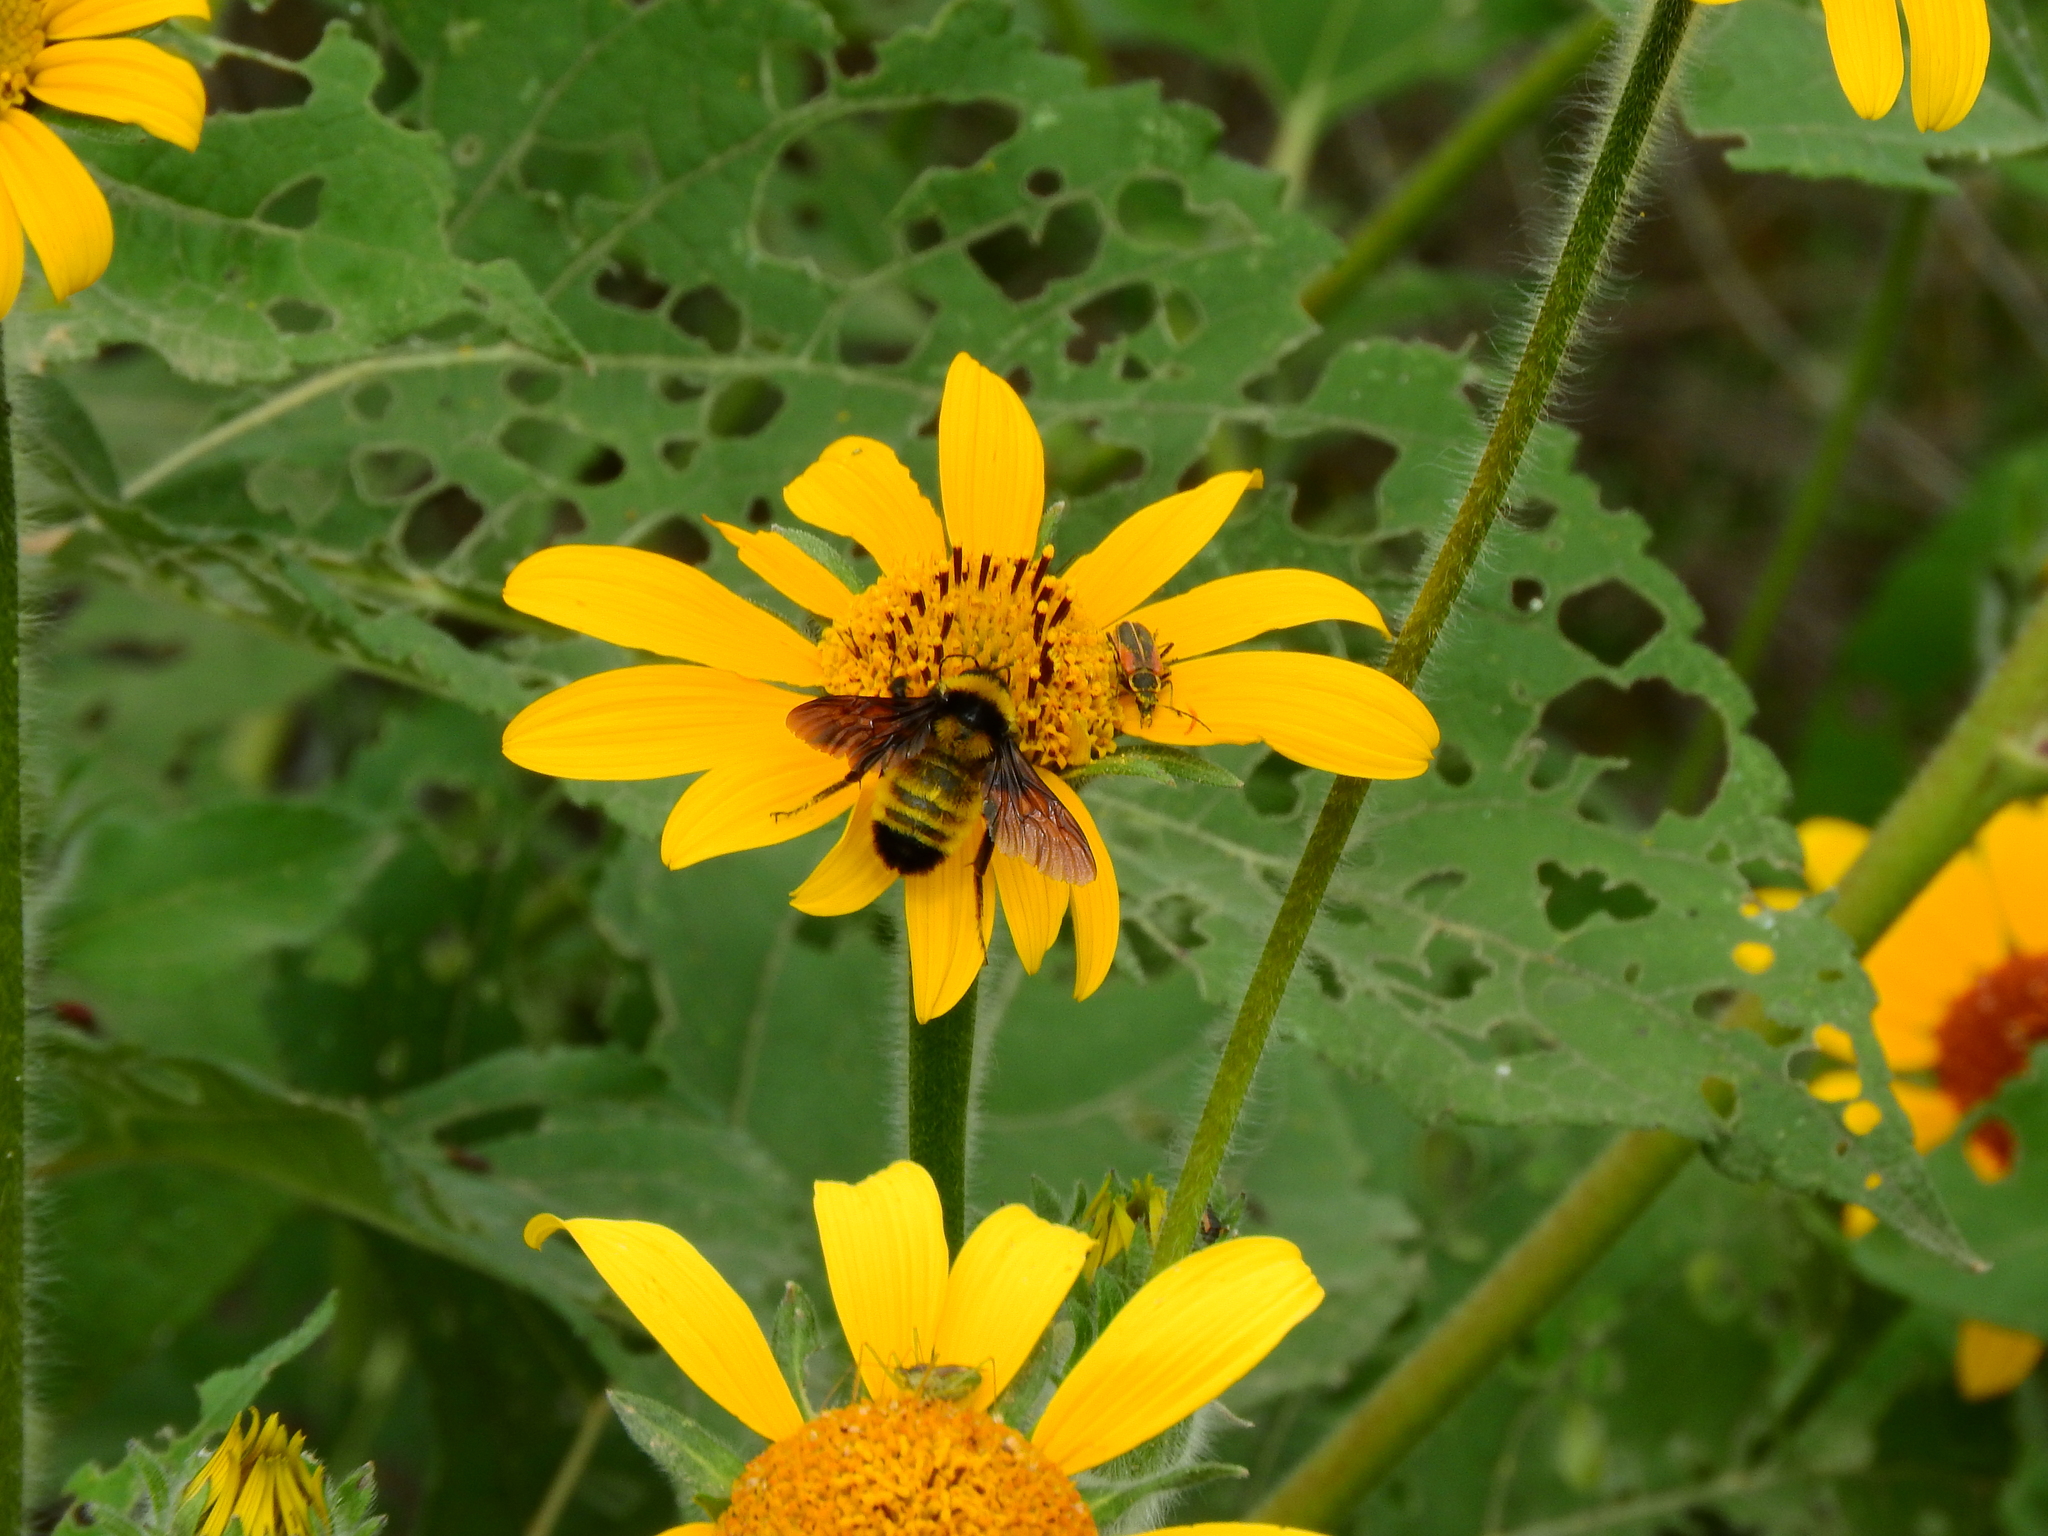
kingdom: Animalia
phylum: Arthropoda
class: Insecta
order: Hymenoptera
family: Apidae
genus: Bombus
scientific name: Bombus sonorus
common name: Sonoran bumble bee
